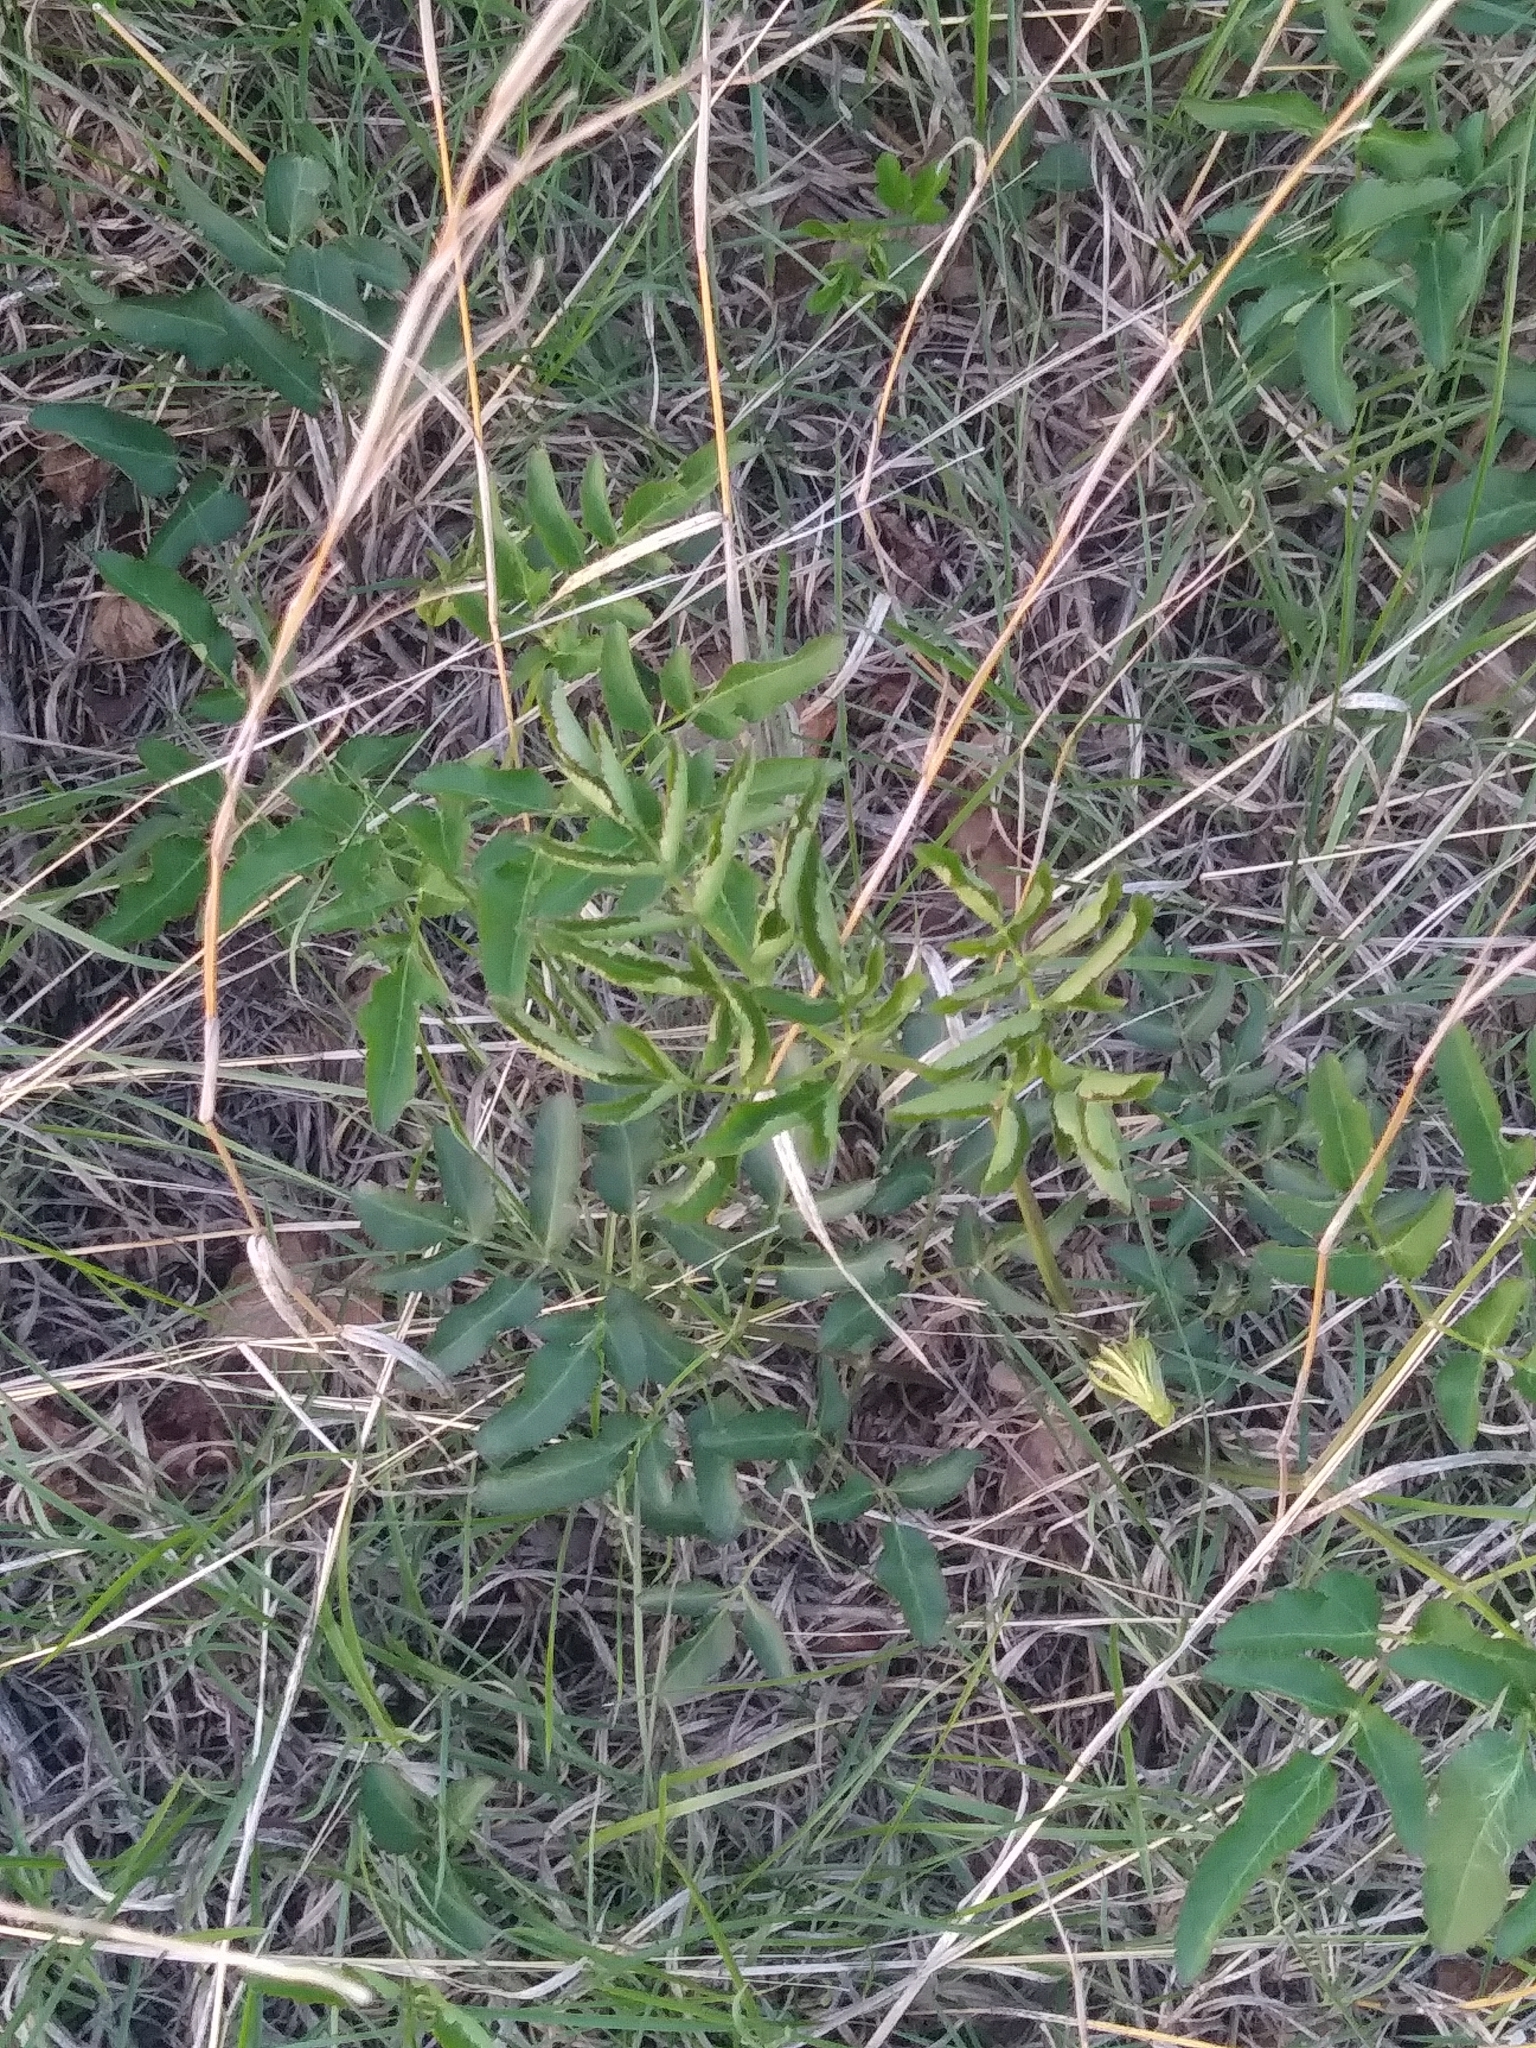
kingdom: Plantae
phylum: Tracheophyta
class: Magnoliopsida
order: Rosales
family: Rosaceae
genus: Sanguisorba
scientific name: Sanguisorba canadensis
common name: White burnet
